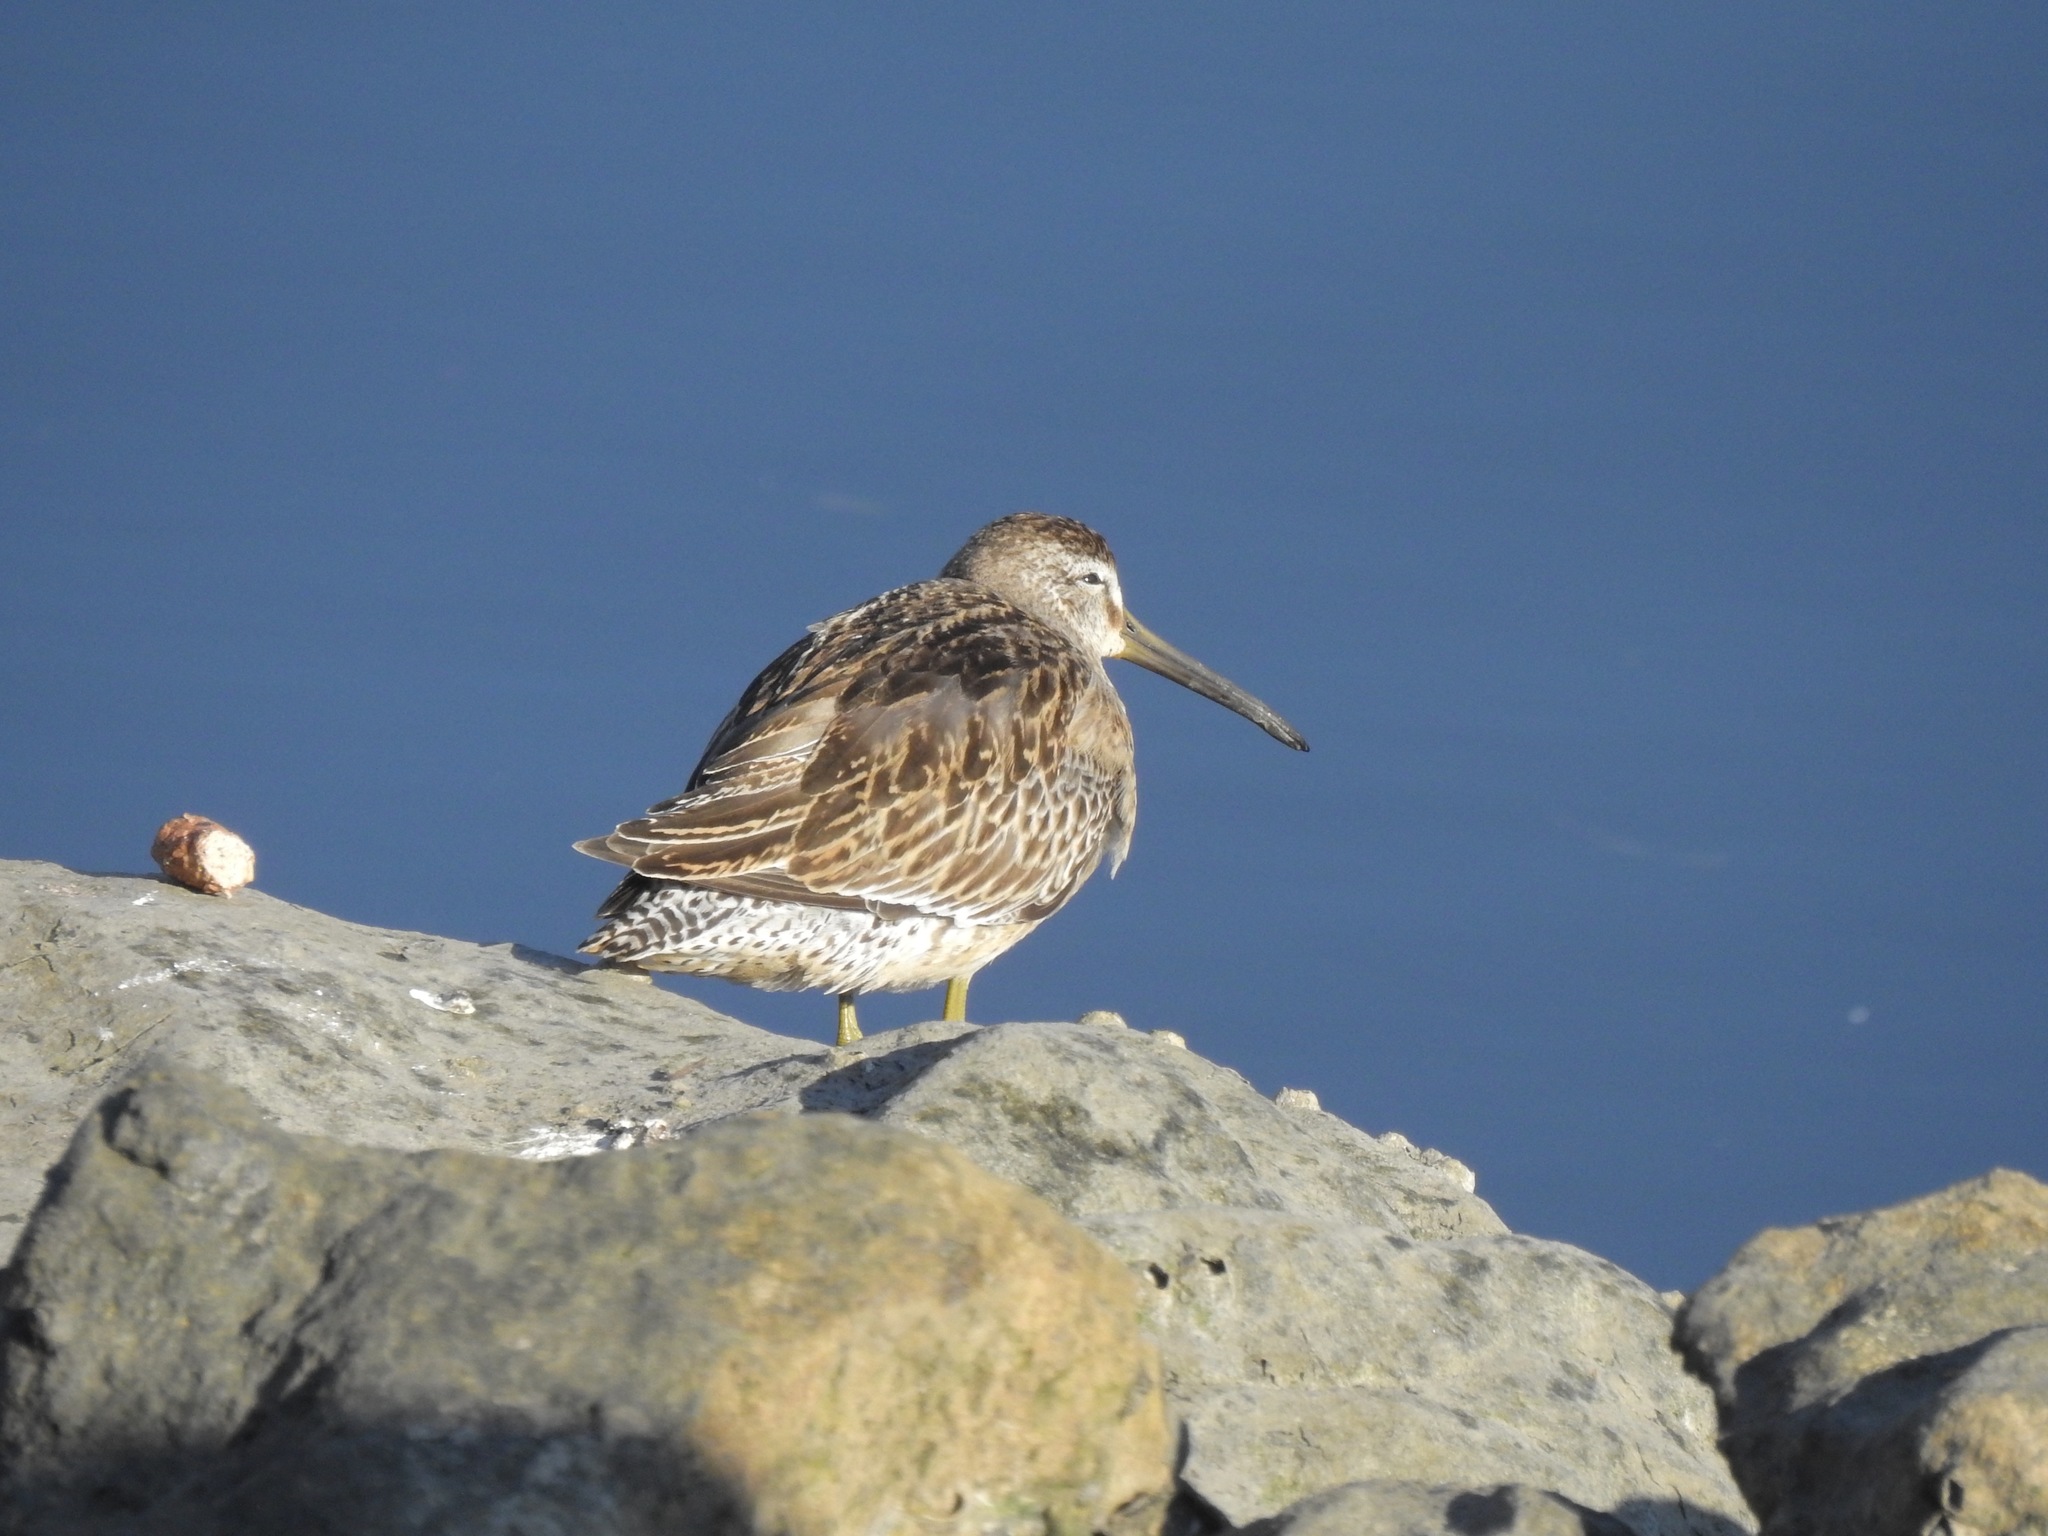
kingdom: Animalia
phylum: Chordata
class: Aves
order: Charadriiformes
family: Scolopacidae
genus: Limnodromus
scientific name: Limnodromus griseus
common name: Short-billed dowitcher
